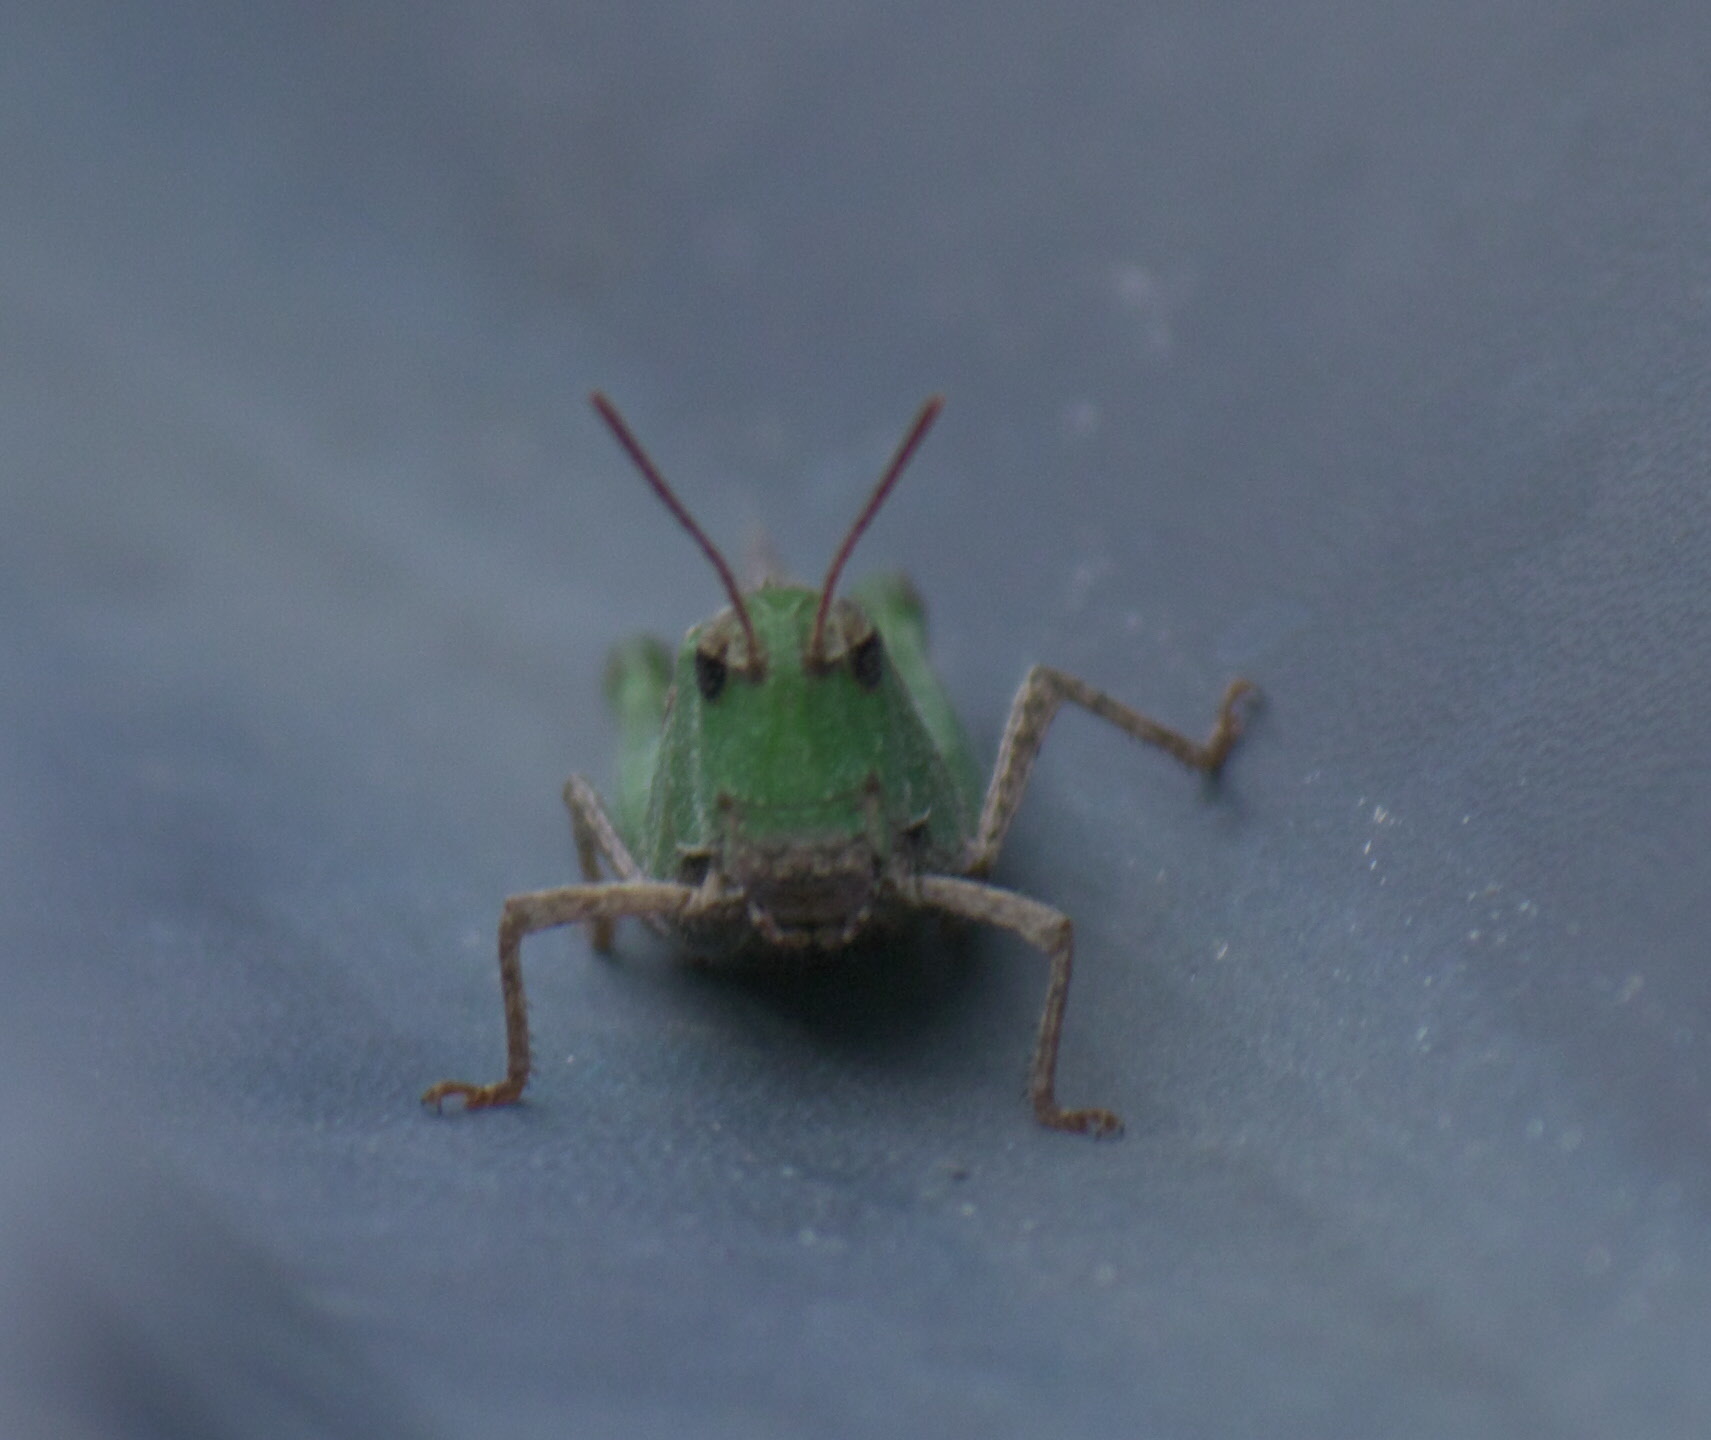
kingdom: Animalia
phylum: Arthropoda
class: Insecta
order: Orthoptera
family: Acrididae
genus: Chortophaga
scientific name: Chortophaga viridifasciata
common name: Green-striped grasshopper
